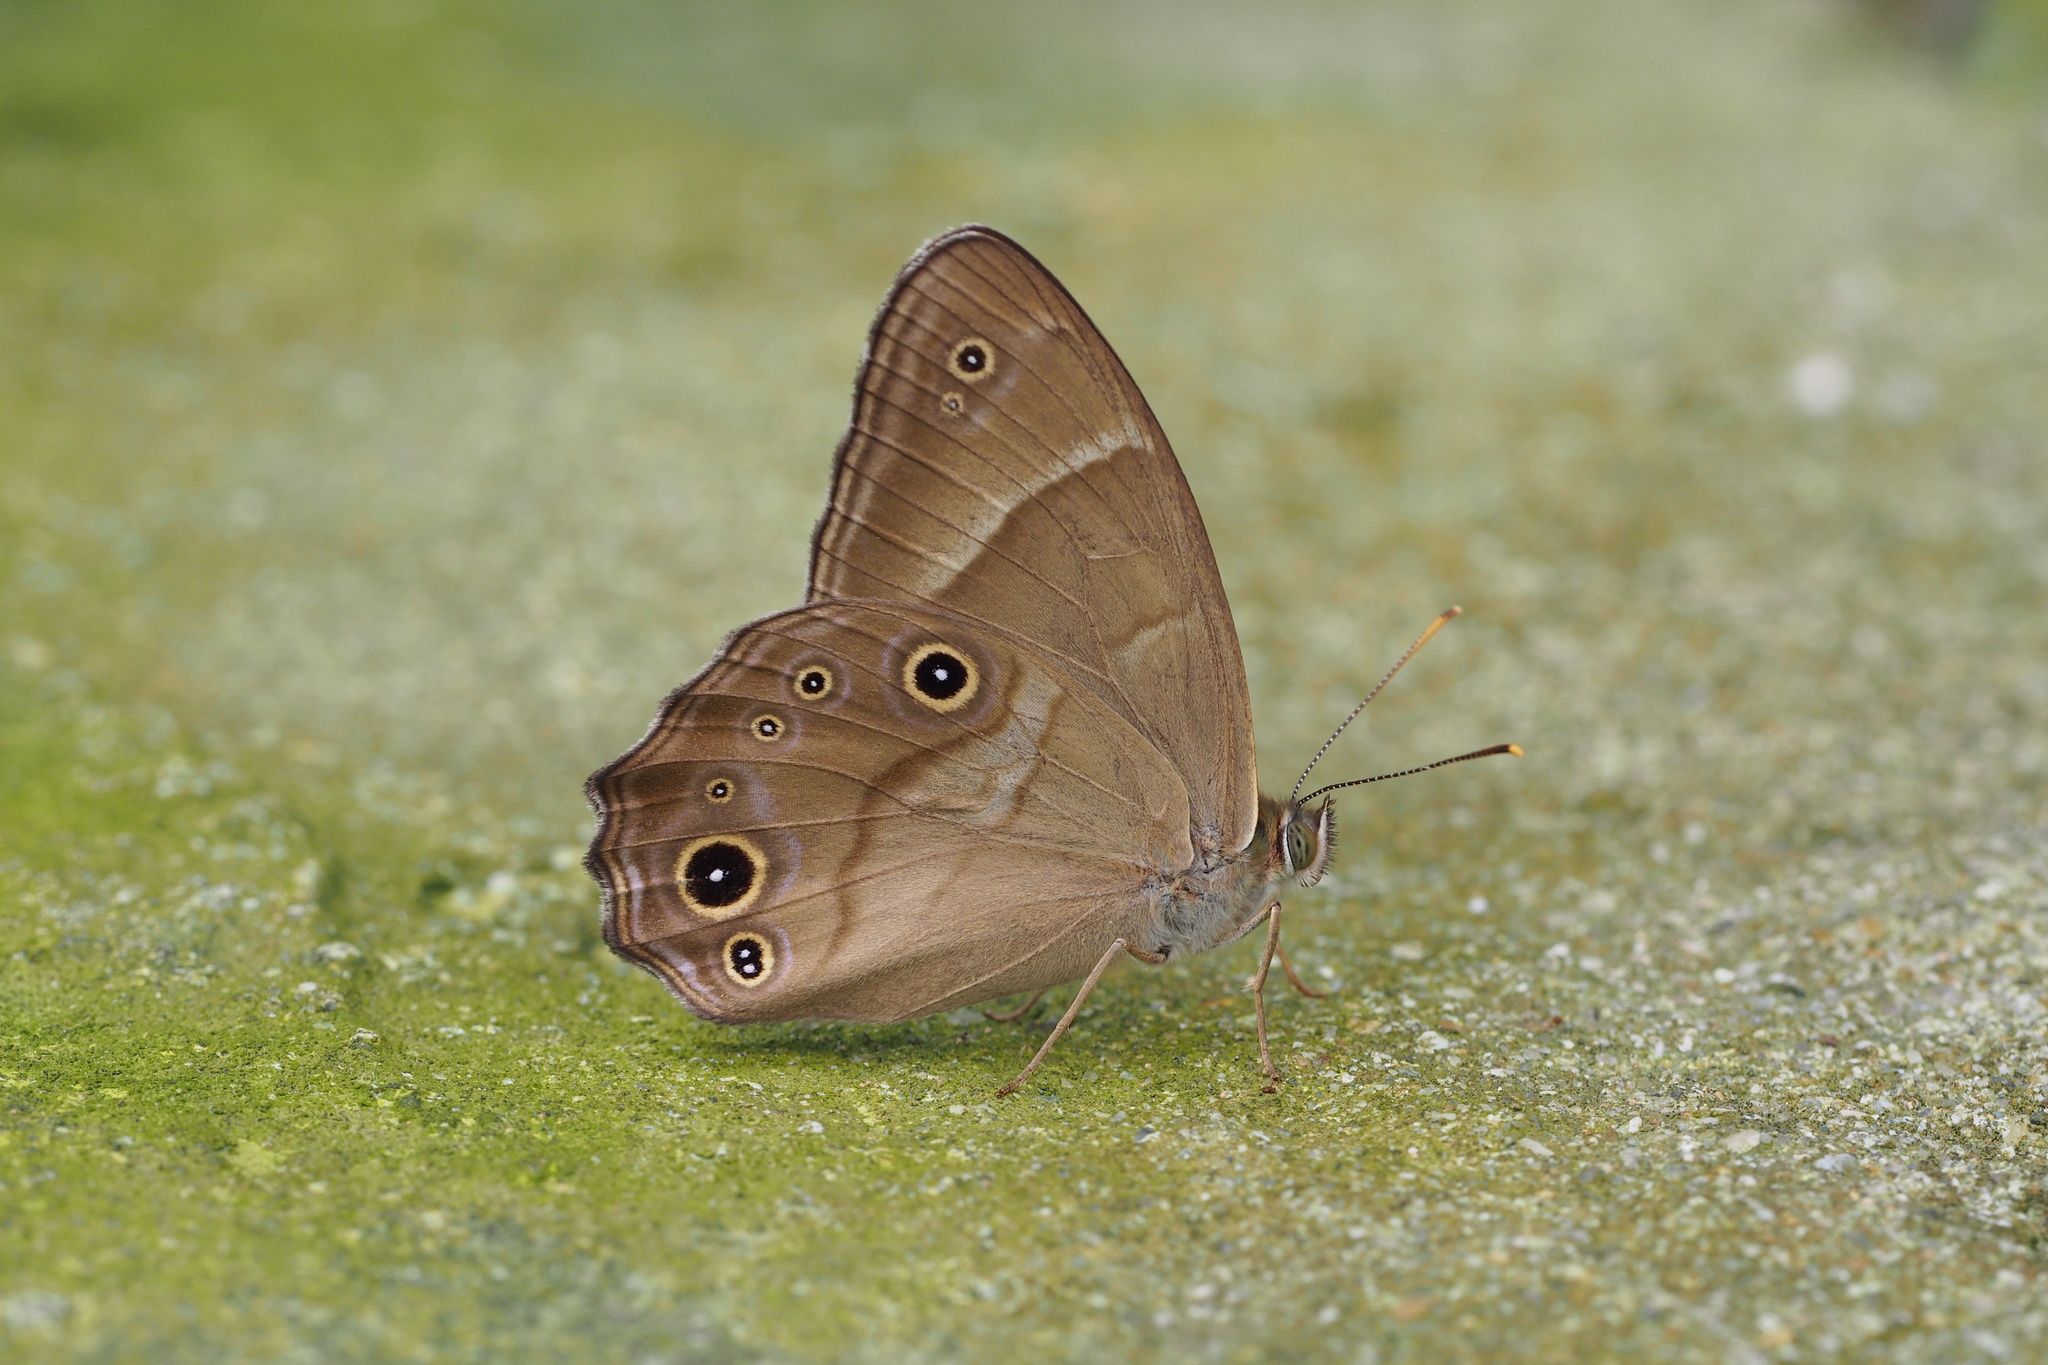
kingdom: Animalia
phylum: Arthropoda
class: Insecta
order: Lepidoptera
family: Nymphalidae
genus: Lethe
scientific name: Lethe sicelis
